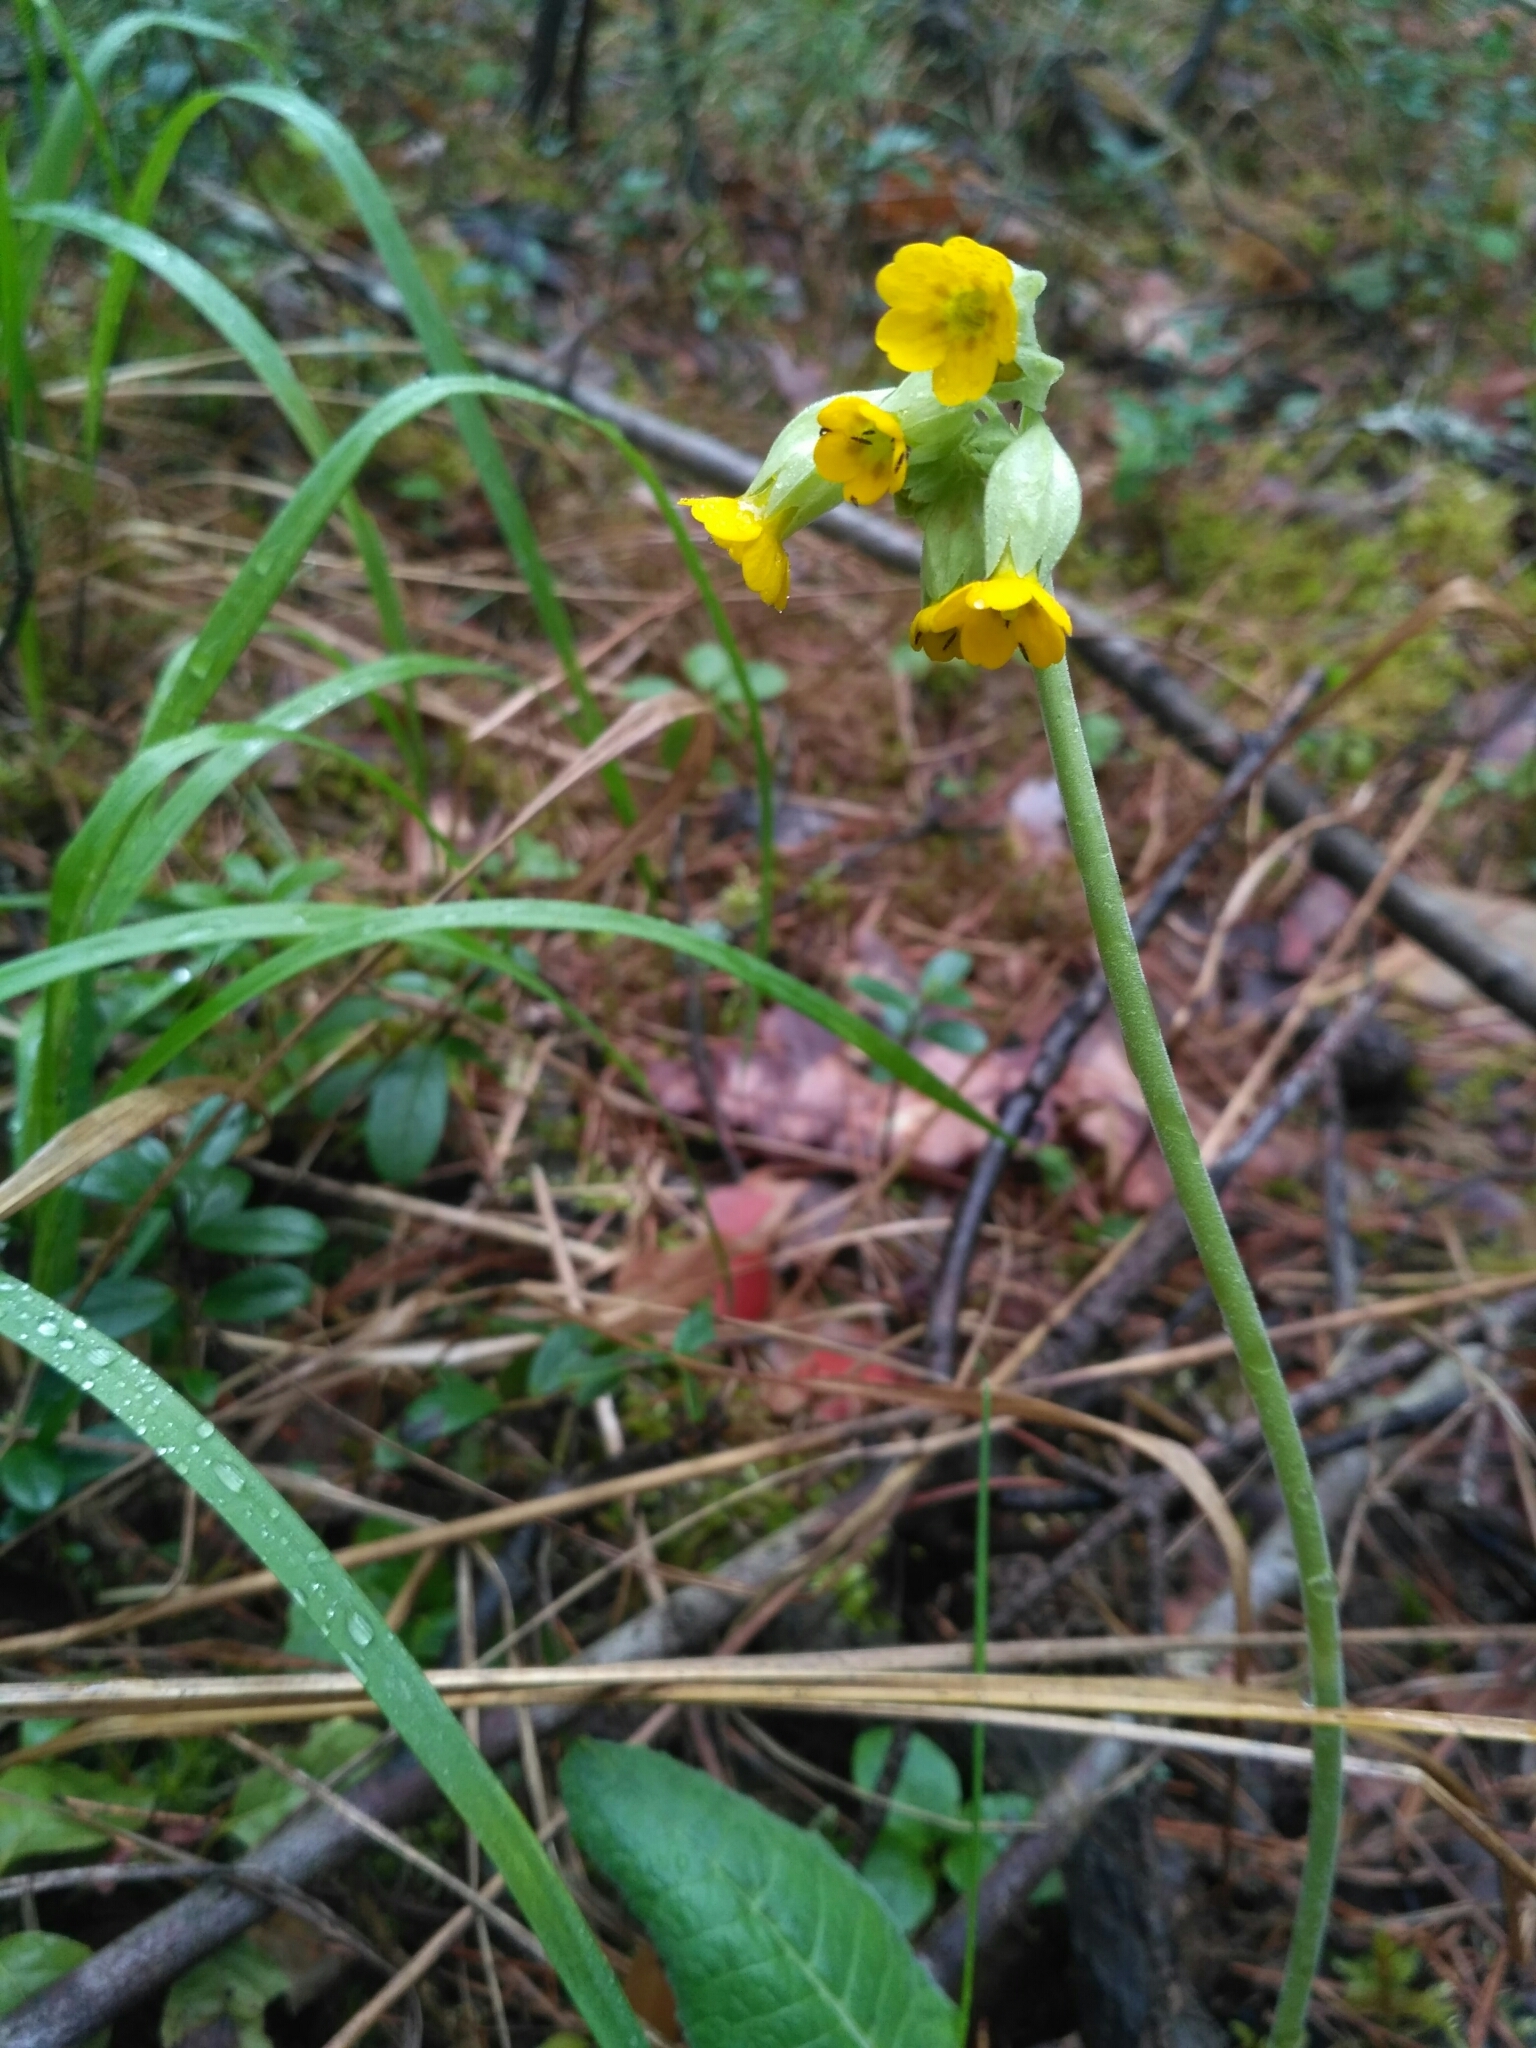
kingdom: Plantae
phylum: Tracheophyta
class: Magnoliopsida
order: Ericales
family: Primulaceae
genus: Primula
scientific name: Primula veris
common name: Cowslip
